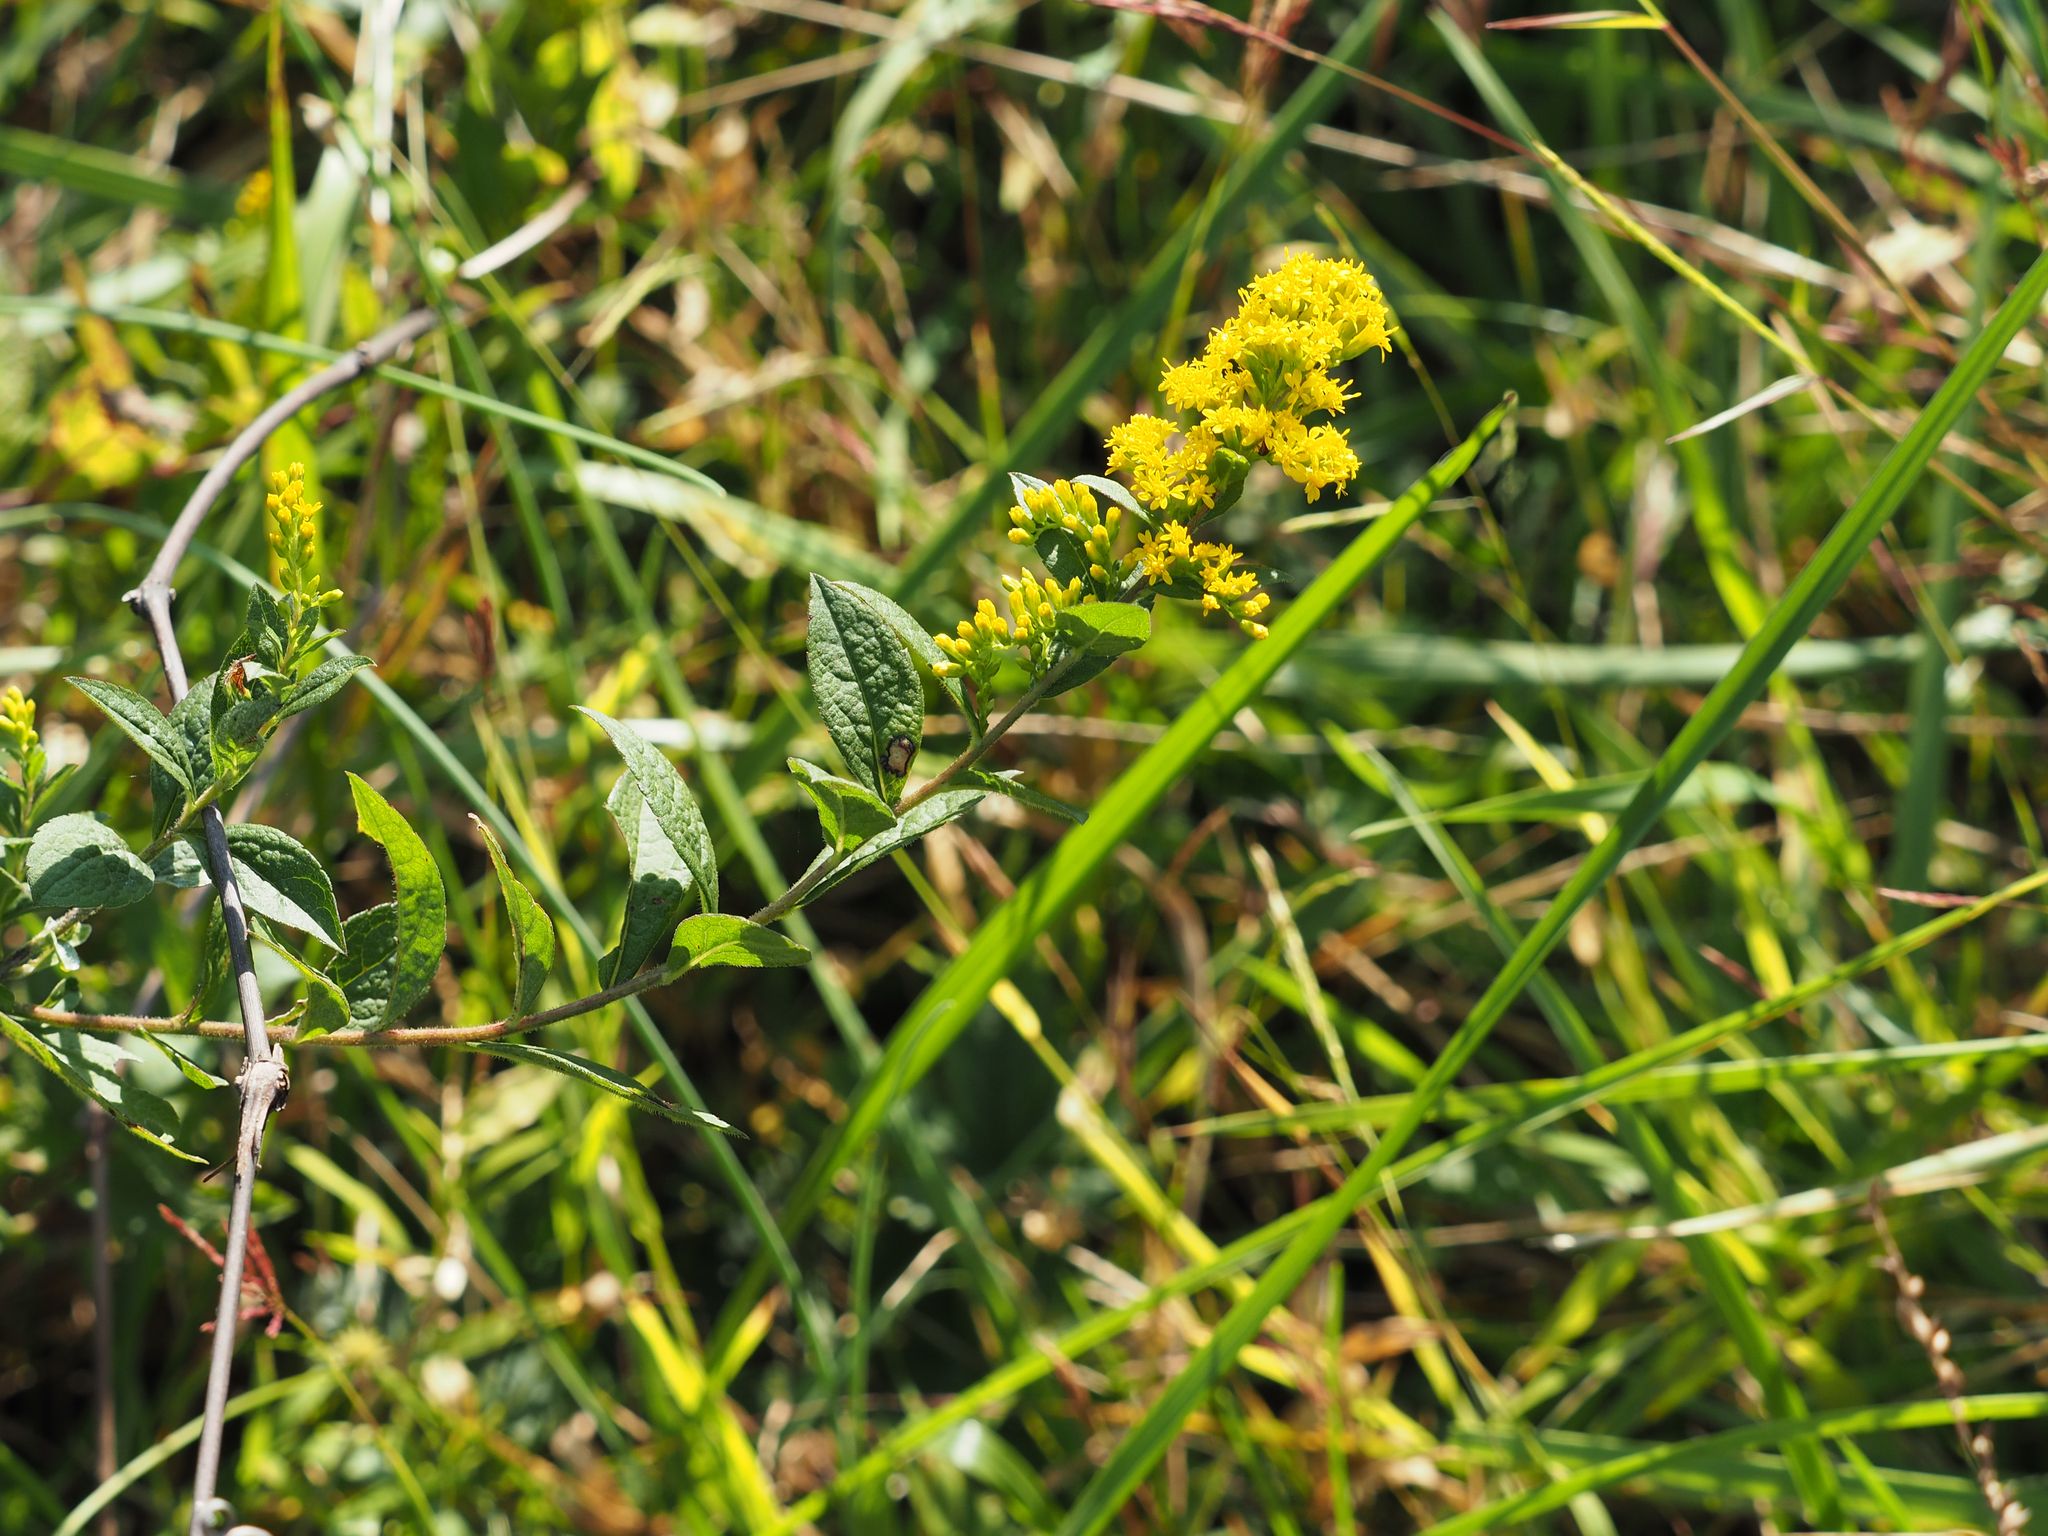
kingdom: Plantae
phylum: Tracheophyta
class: Magnoliopsida
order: Asterales
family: Asteraceae
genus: Solidago
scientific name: Solidago rugosa
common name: Rough-stemmed goldenrod
